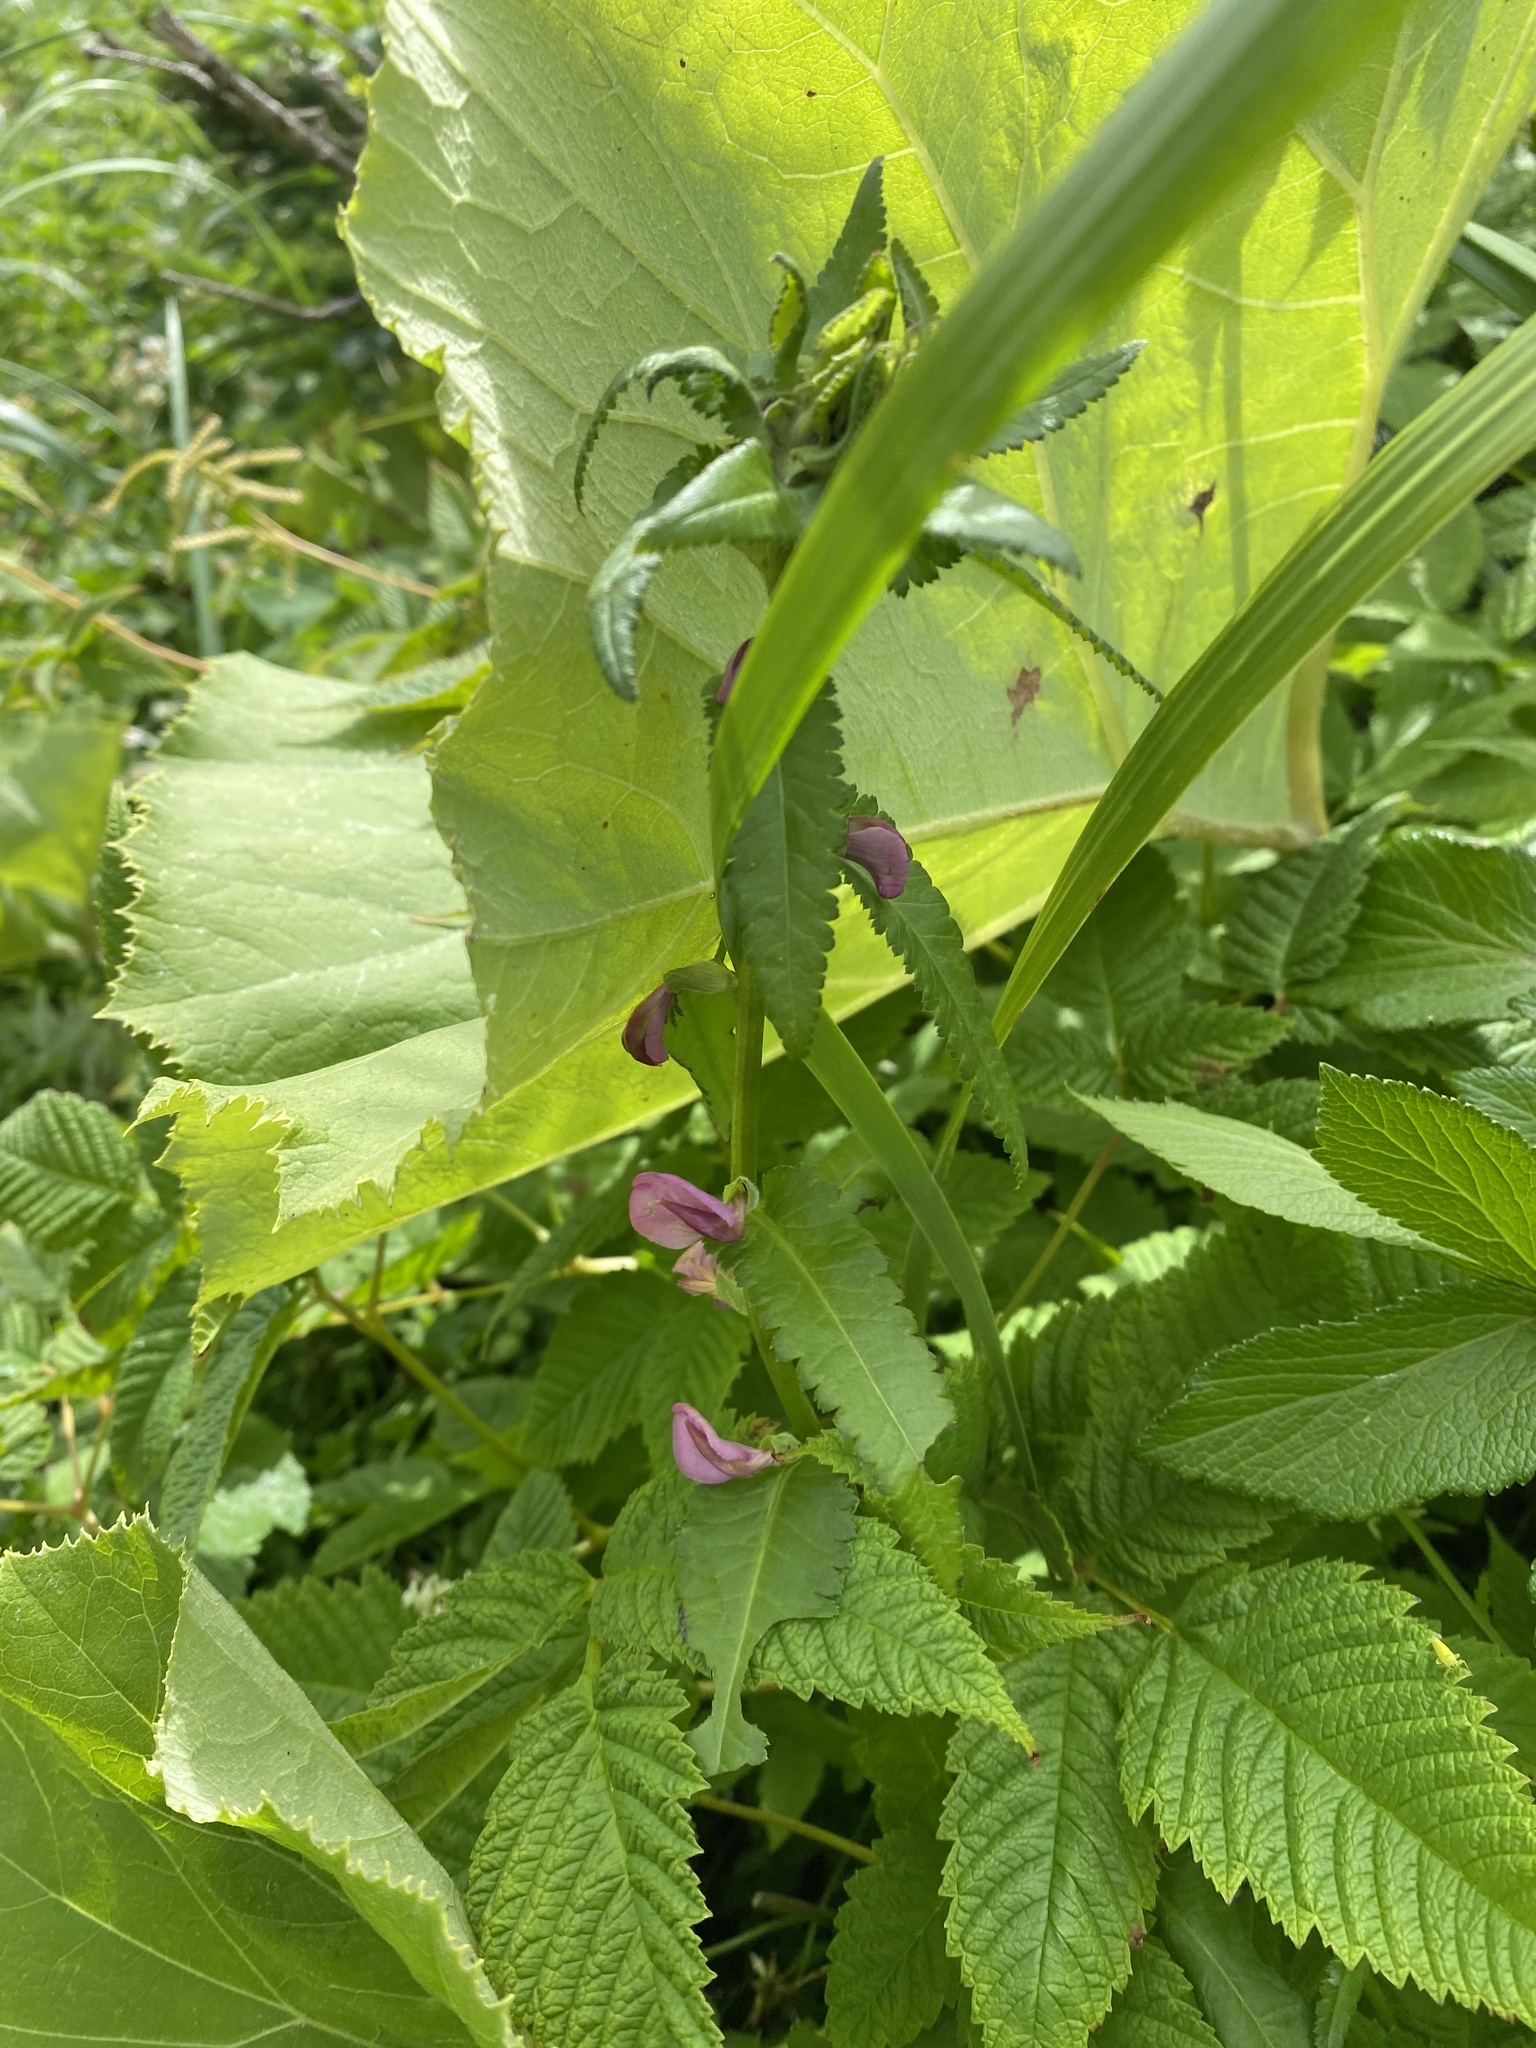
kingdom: Plantae
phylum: Tracheophyta
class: Magnoliopsida
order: Lamiales
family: Orobanchaceae
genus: Pedicularis
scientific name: Pedicularis resupinata
